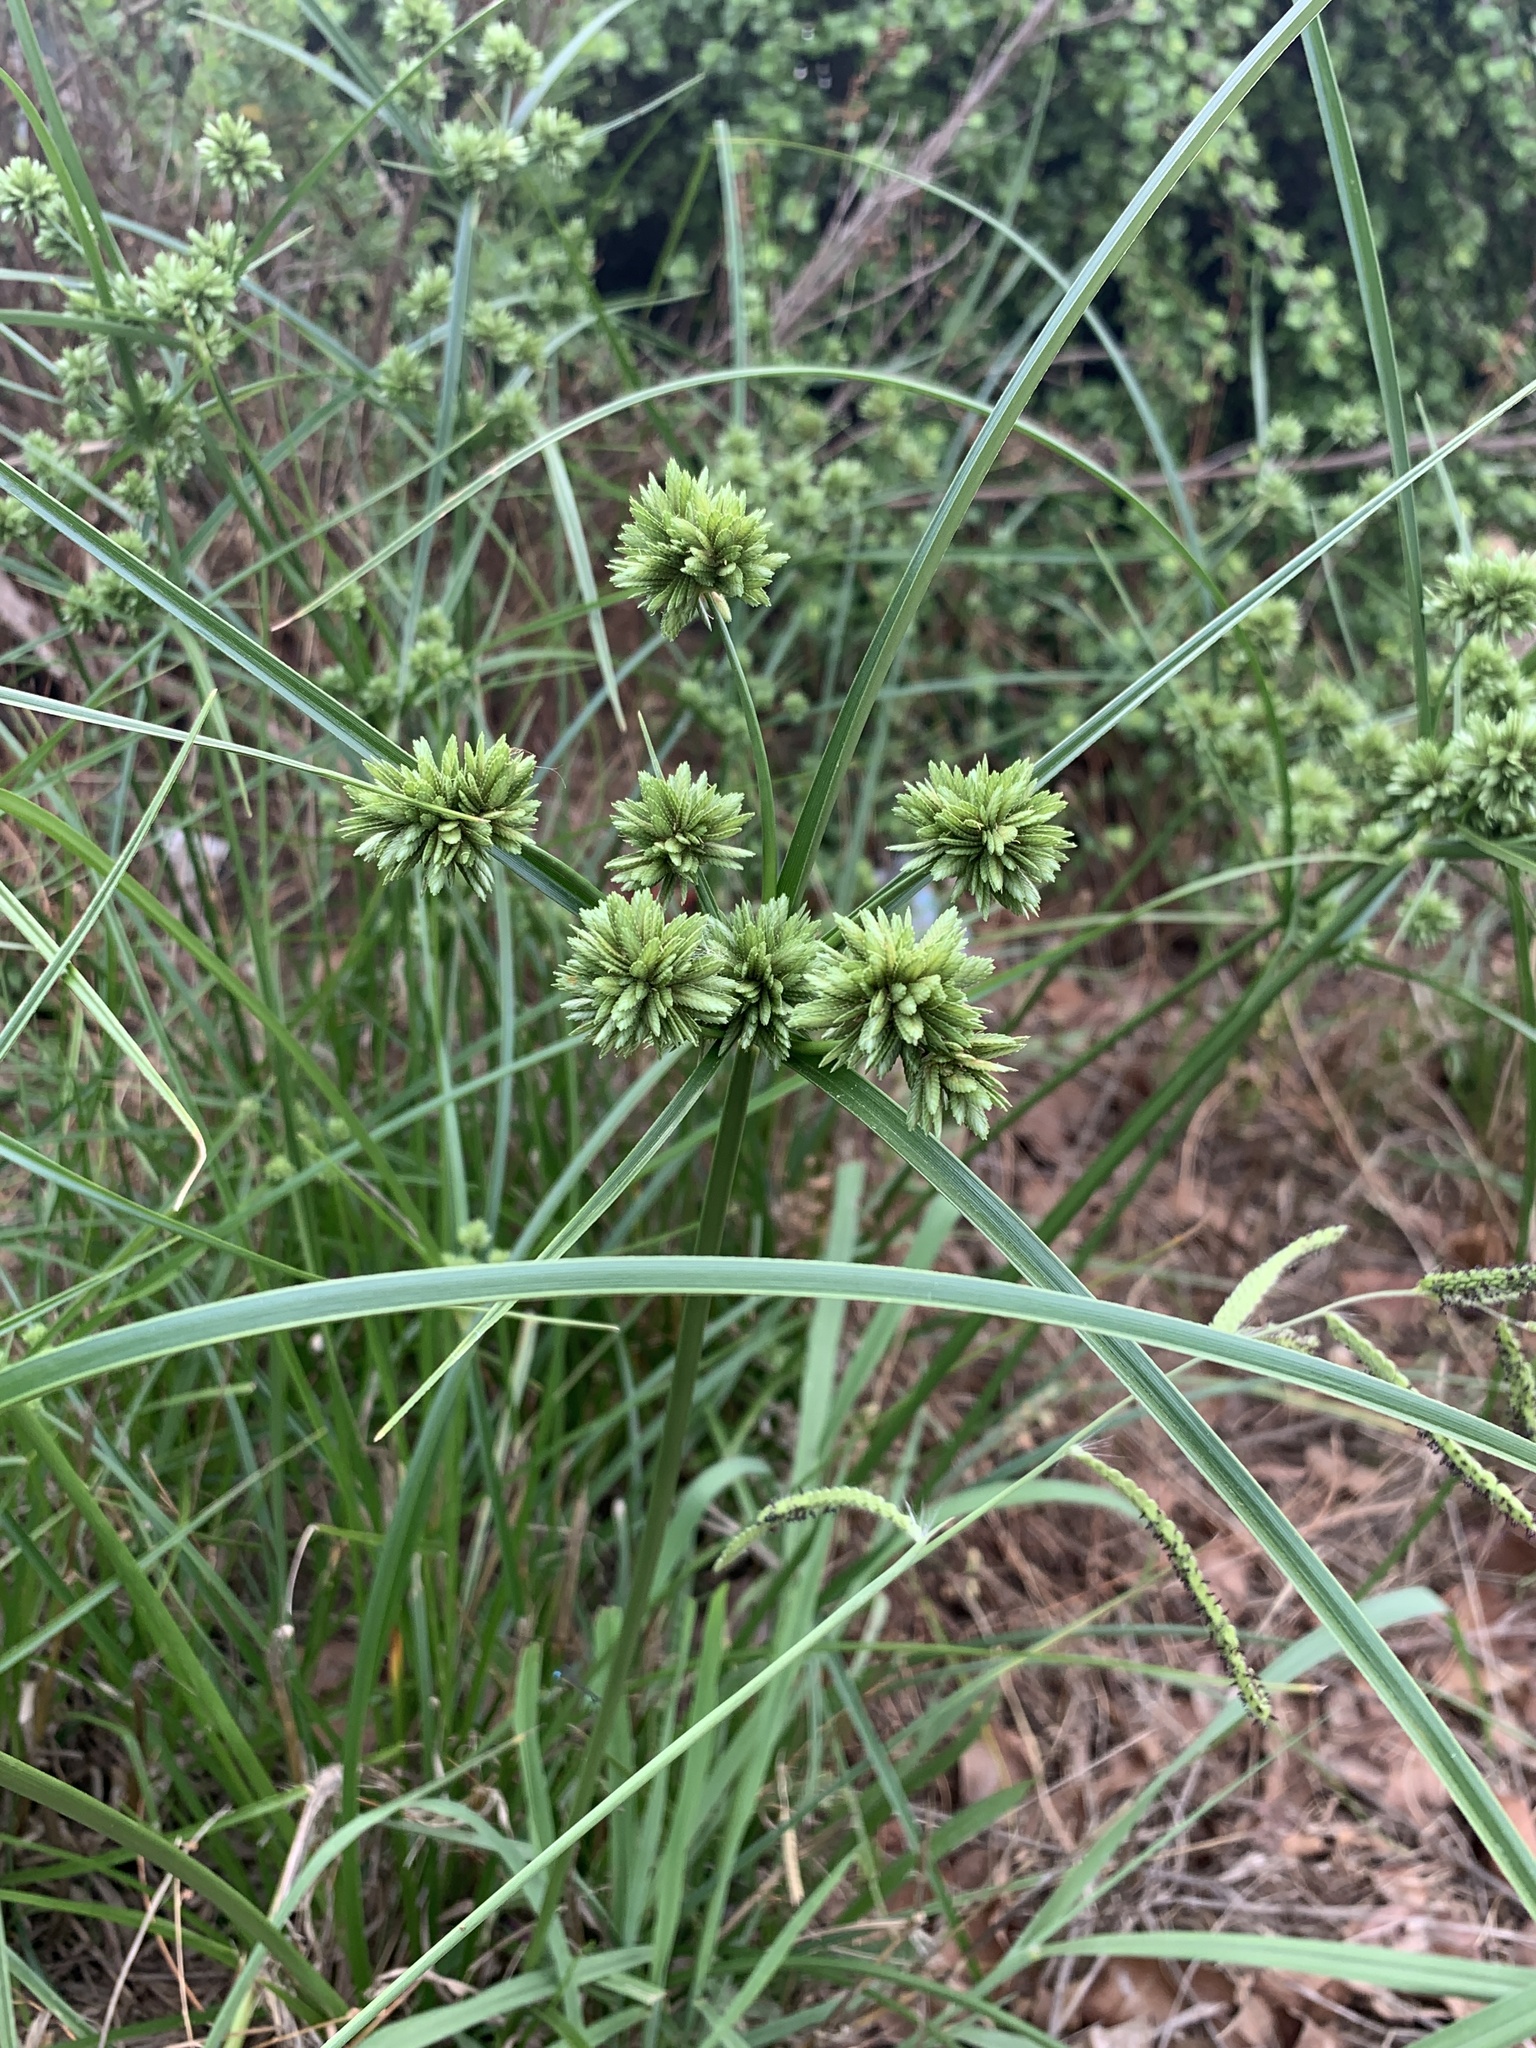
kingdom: Plantae
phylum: Tracheophyta
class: Liliopsida
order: Poales
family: Cyperaceae
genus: Cyperus
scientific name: Cyperus eragrostis
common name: Tall flatsedge
